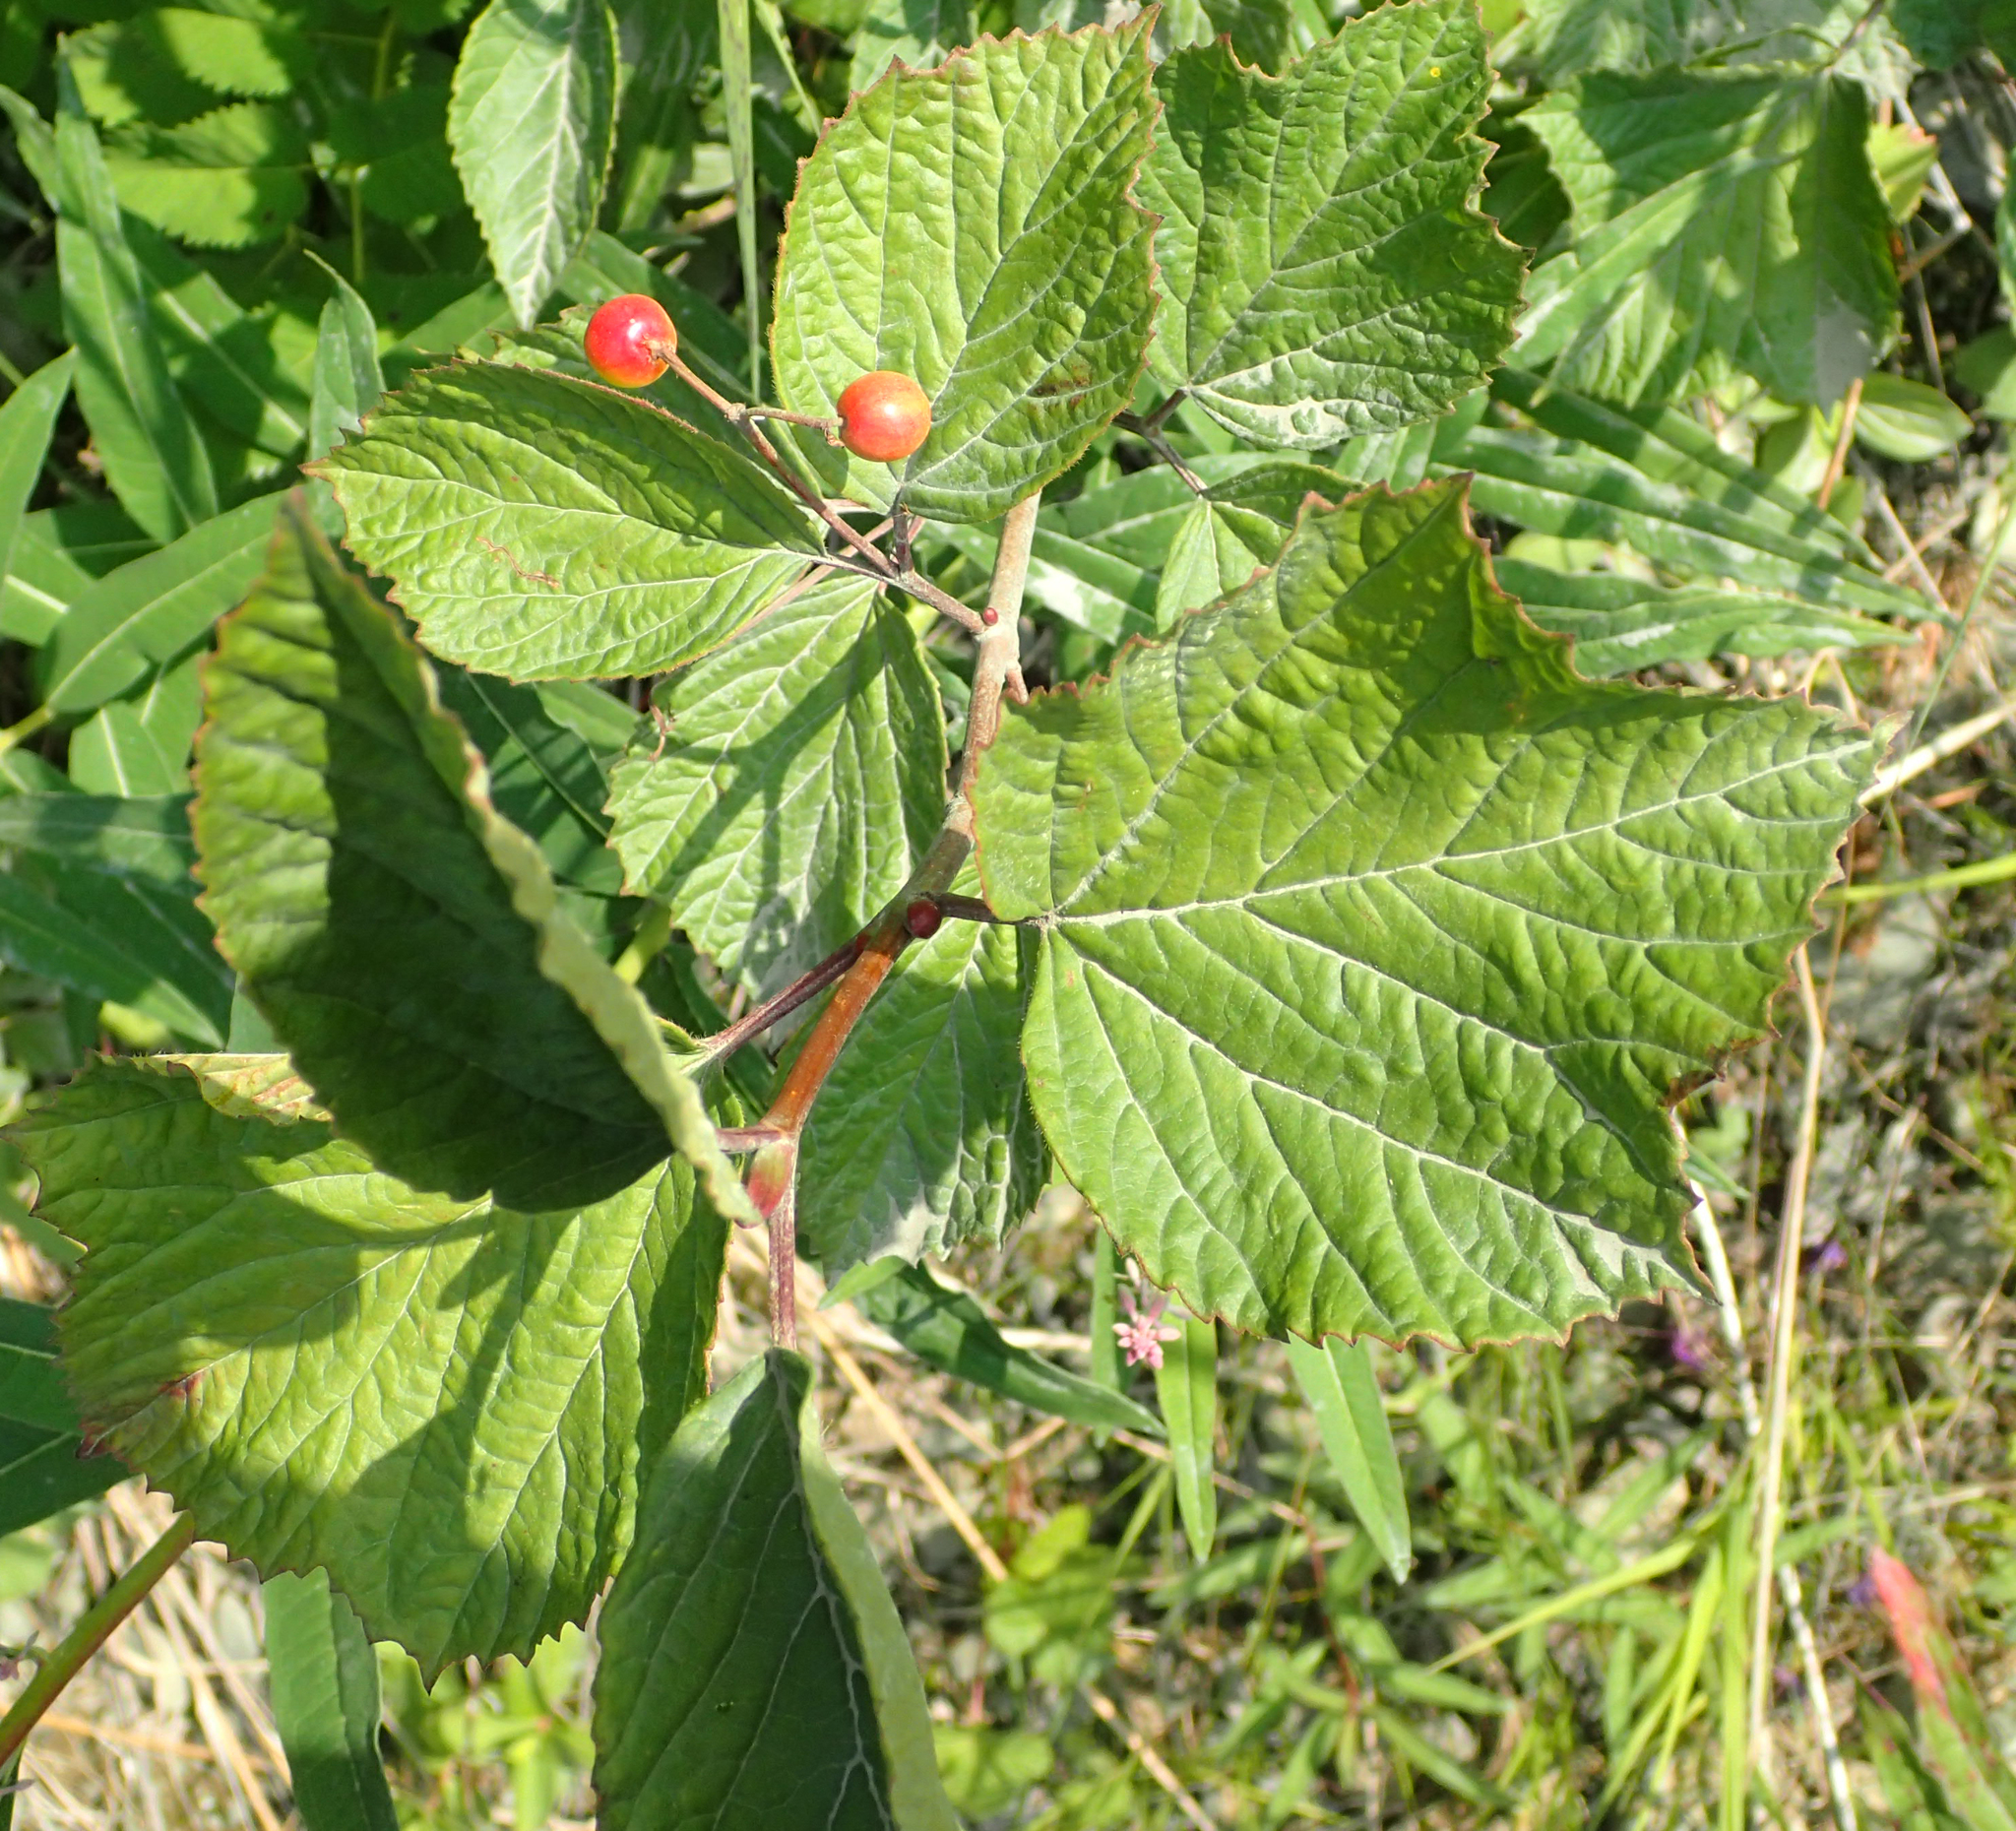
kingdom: Plantae
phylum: Tracheophyta
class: Magnoliopsida
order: Dipsacales
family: Viburnaceae
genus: Viburnum
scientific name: Viburnum edule
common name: Mooseberry
